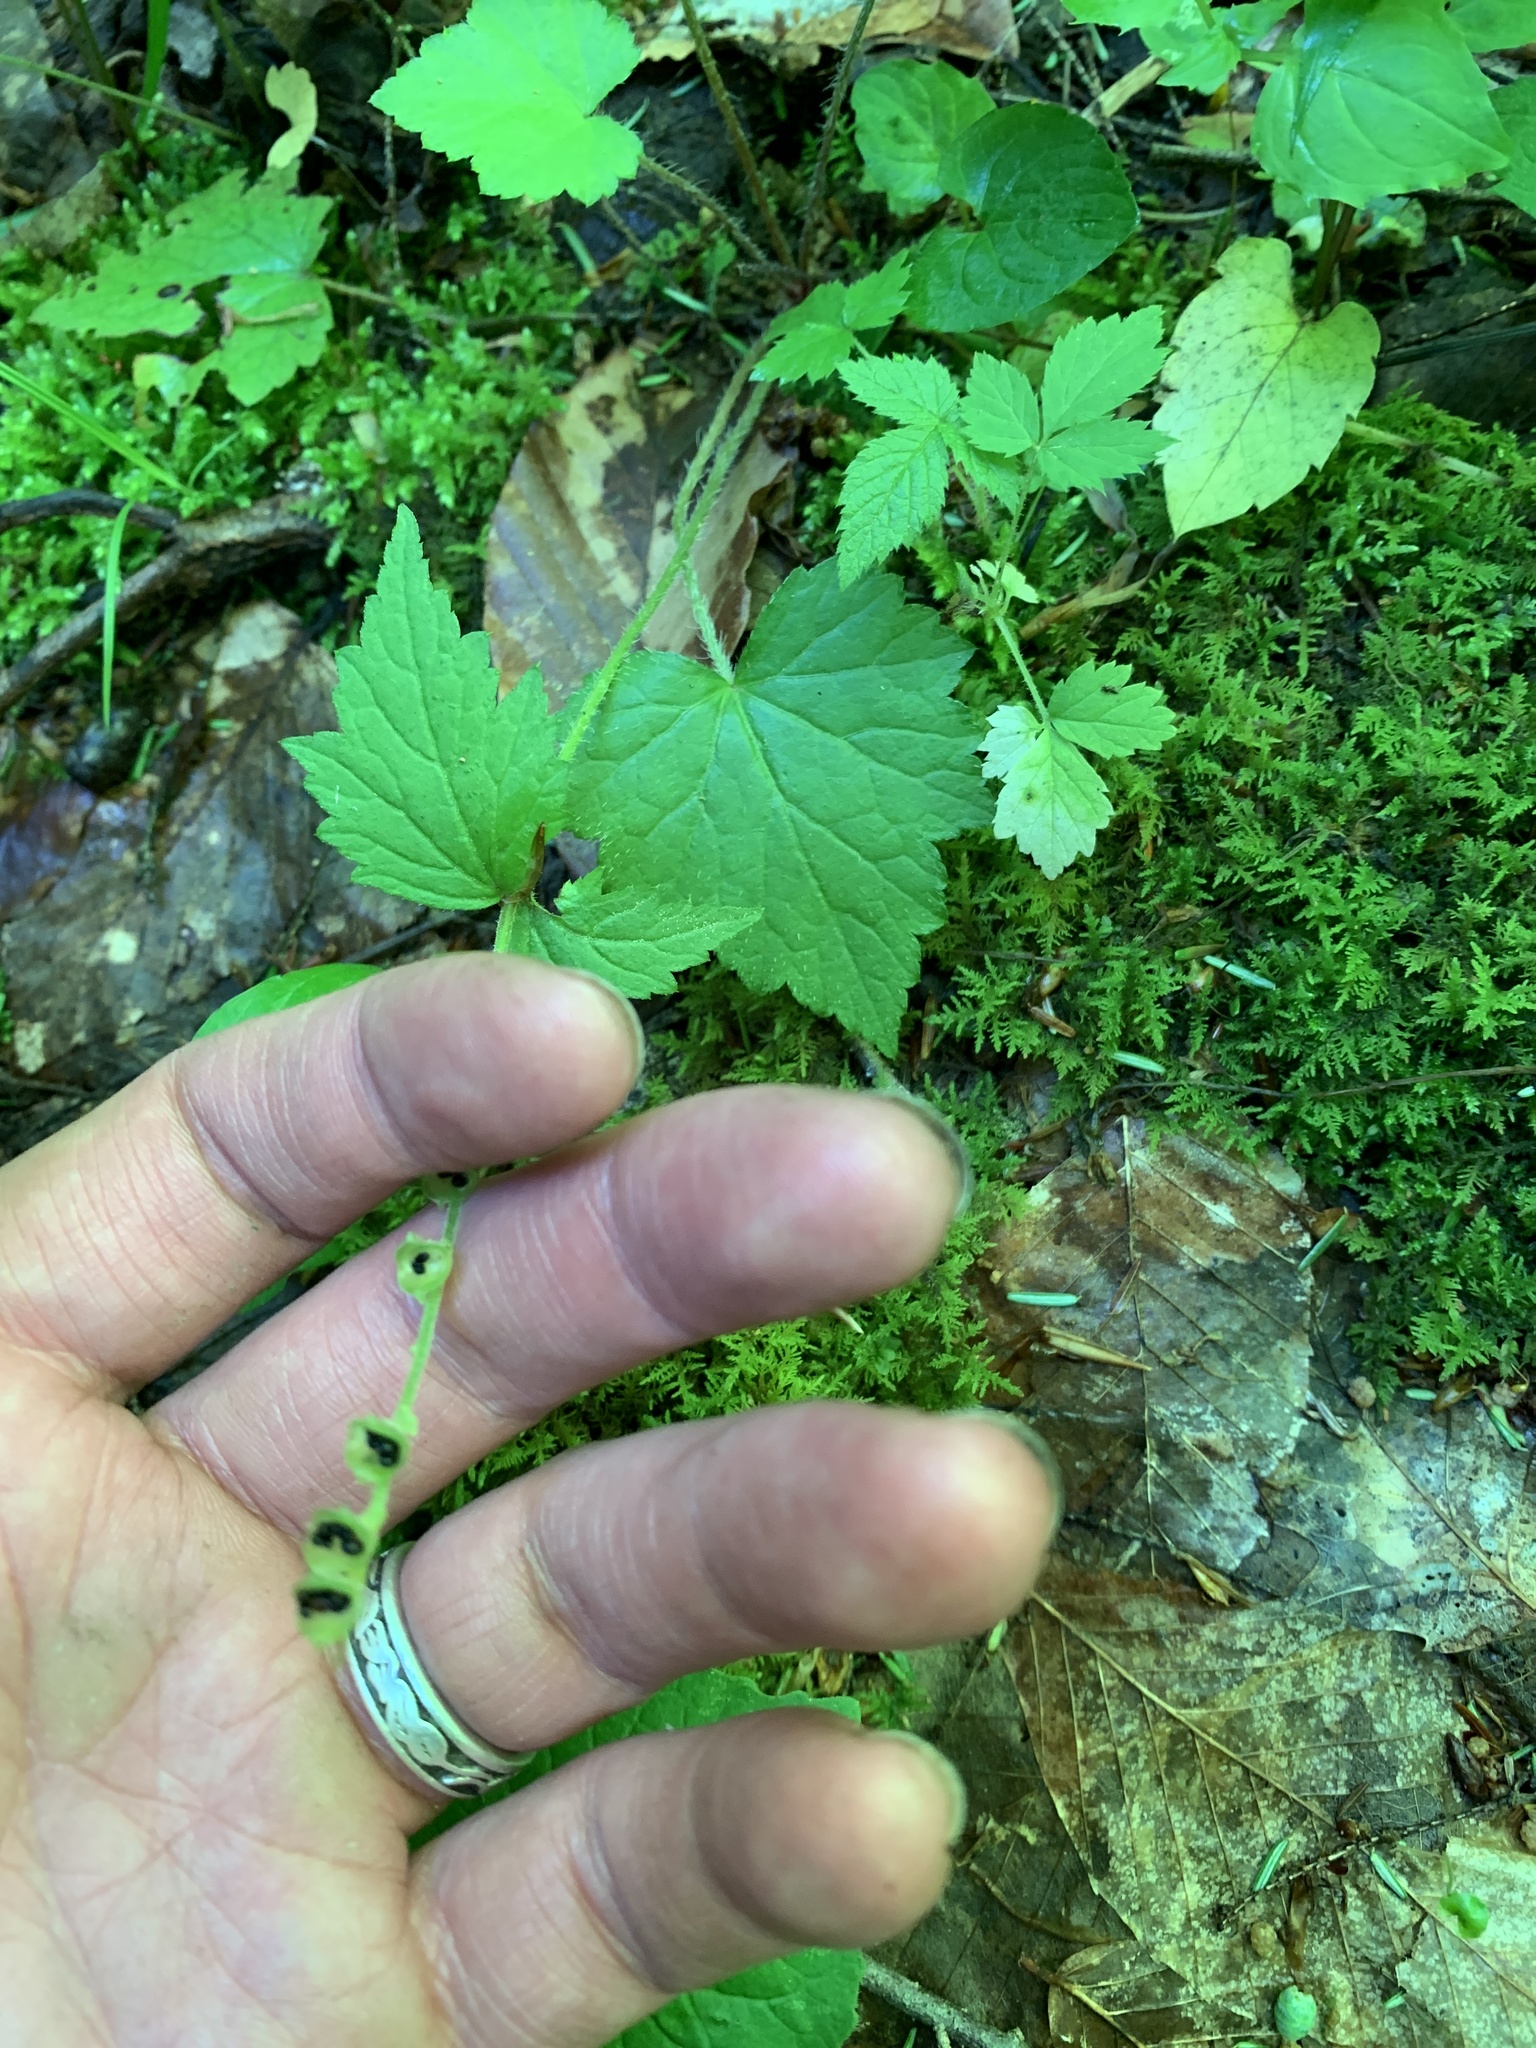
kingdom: Plantae
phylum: Tracheophyta
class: Magnoliopsida
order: Saxifragales
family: Saxifragaceae
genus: Mitella
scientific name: Mitella diphylla
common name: Coolwort
